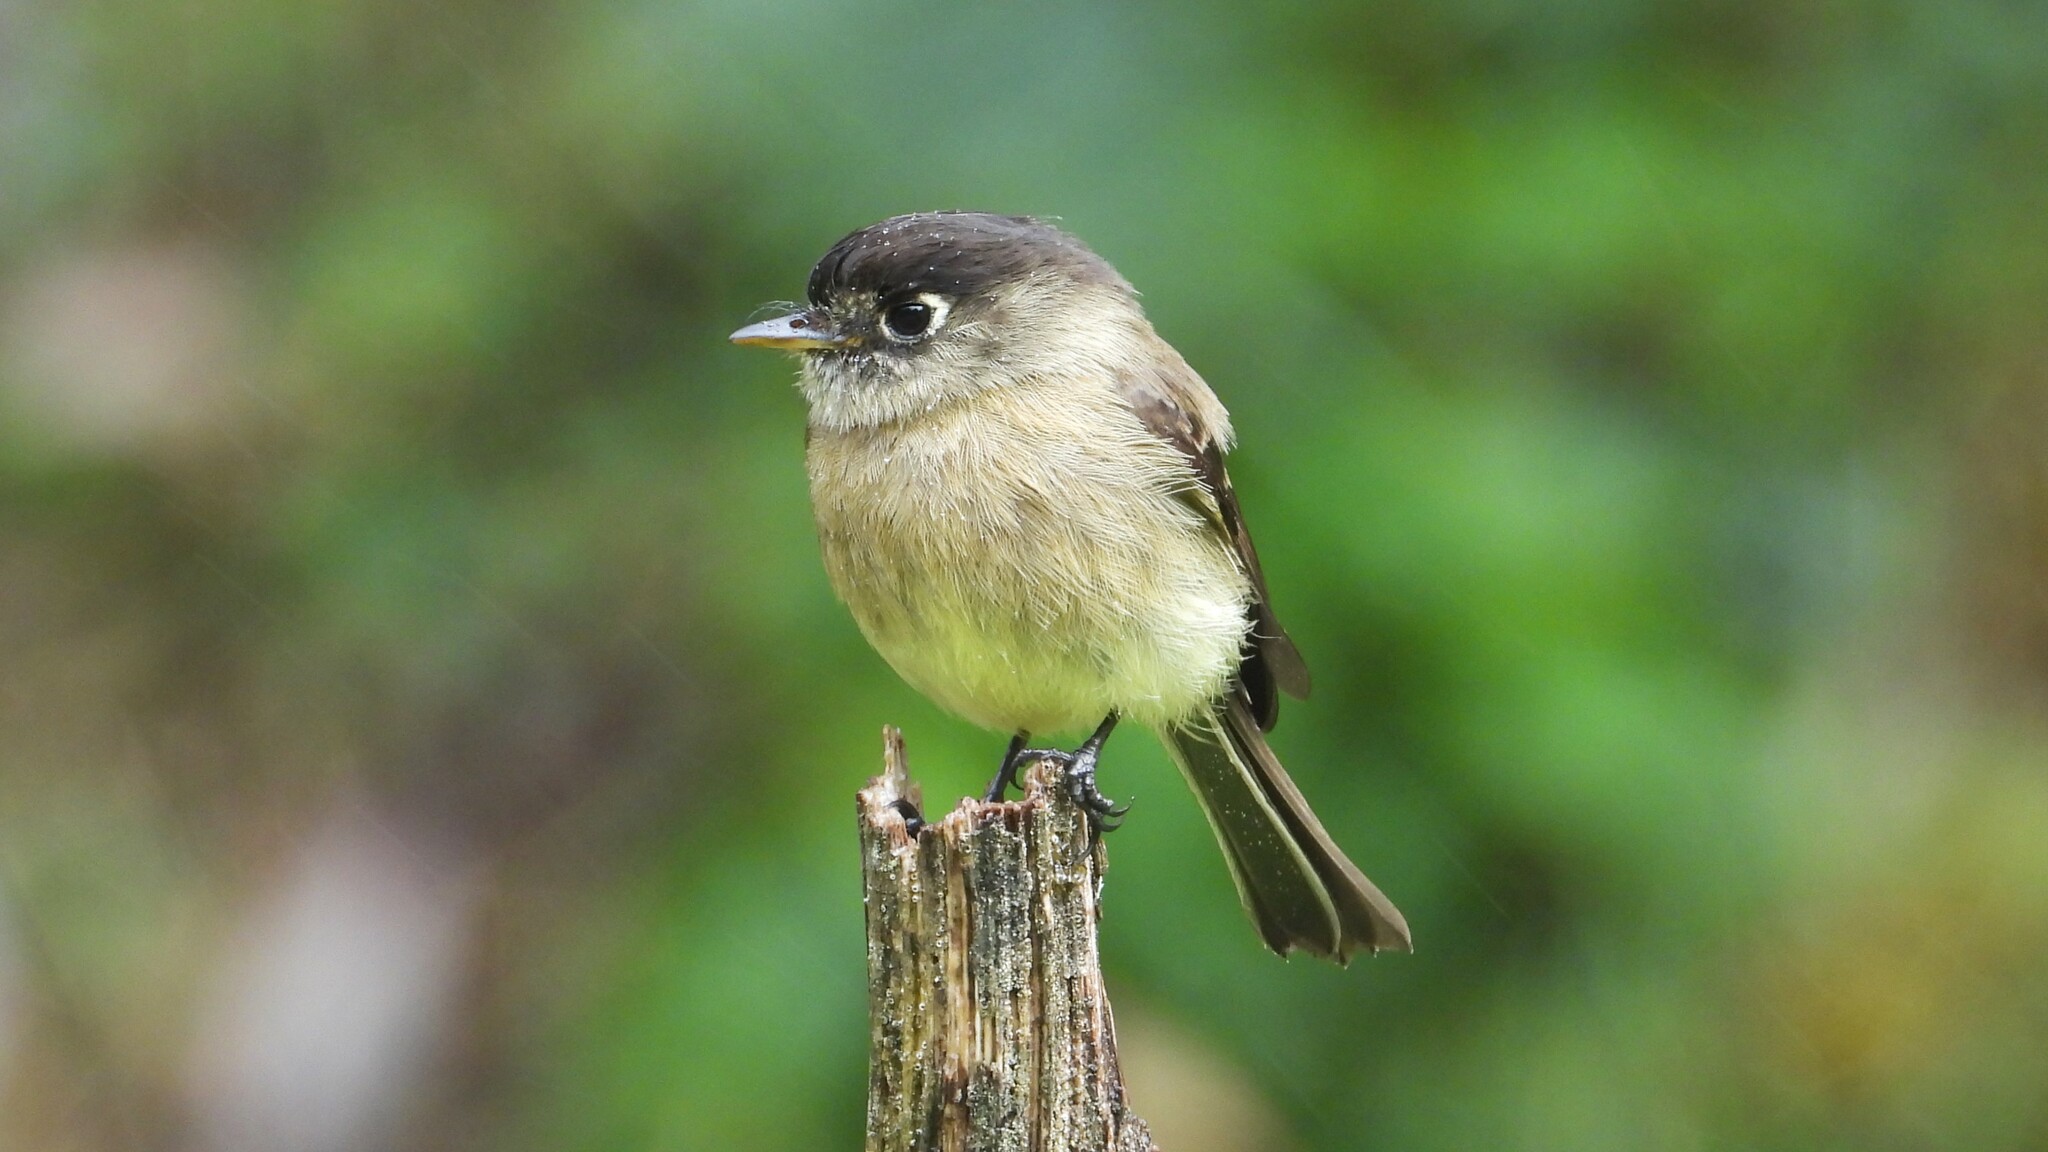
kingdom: Animalia
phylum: Chordata
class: Aves
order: Passeriformes
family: Tyrannidae
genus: Empidonax
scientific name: Empidonax atriceps
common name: Black-capped flycatcher
